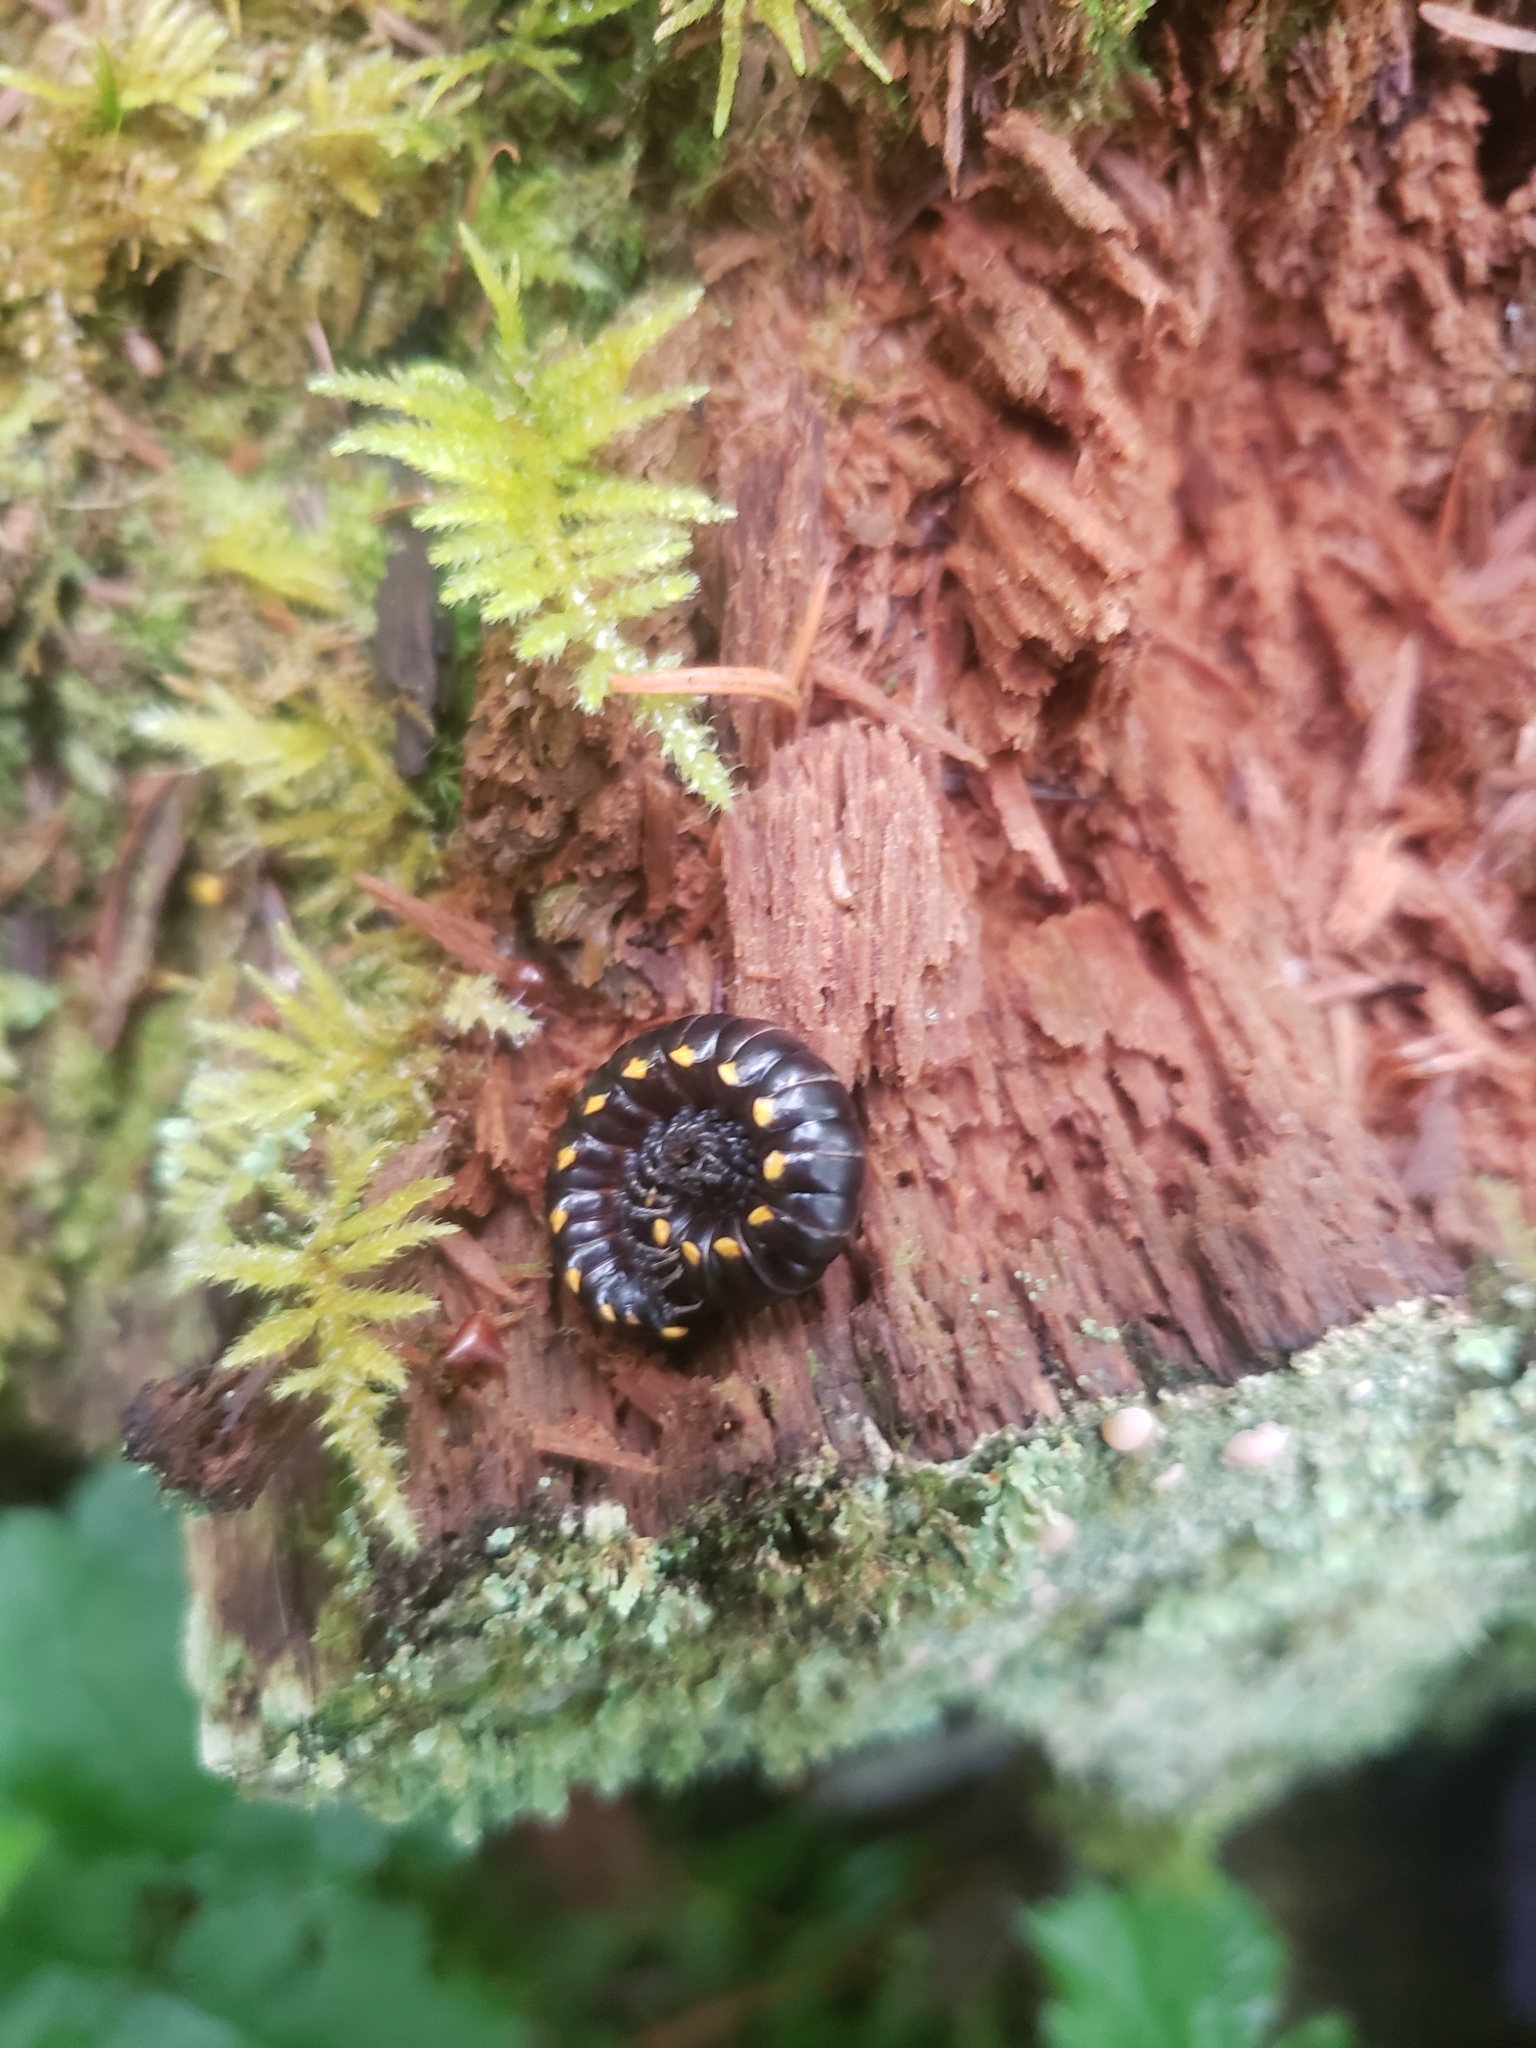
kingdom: Animalia
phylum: Arthropoda
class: Diplopoda
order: Polydesmida
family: Xystodesmidae
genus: Harpaphe
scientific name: Harpaphe haydeniana
